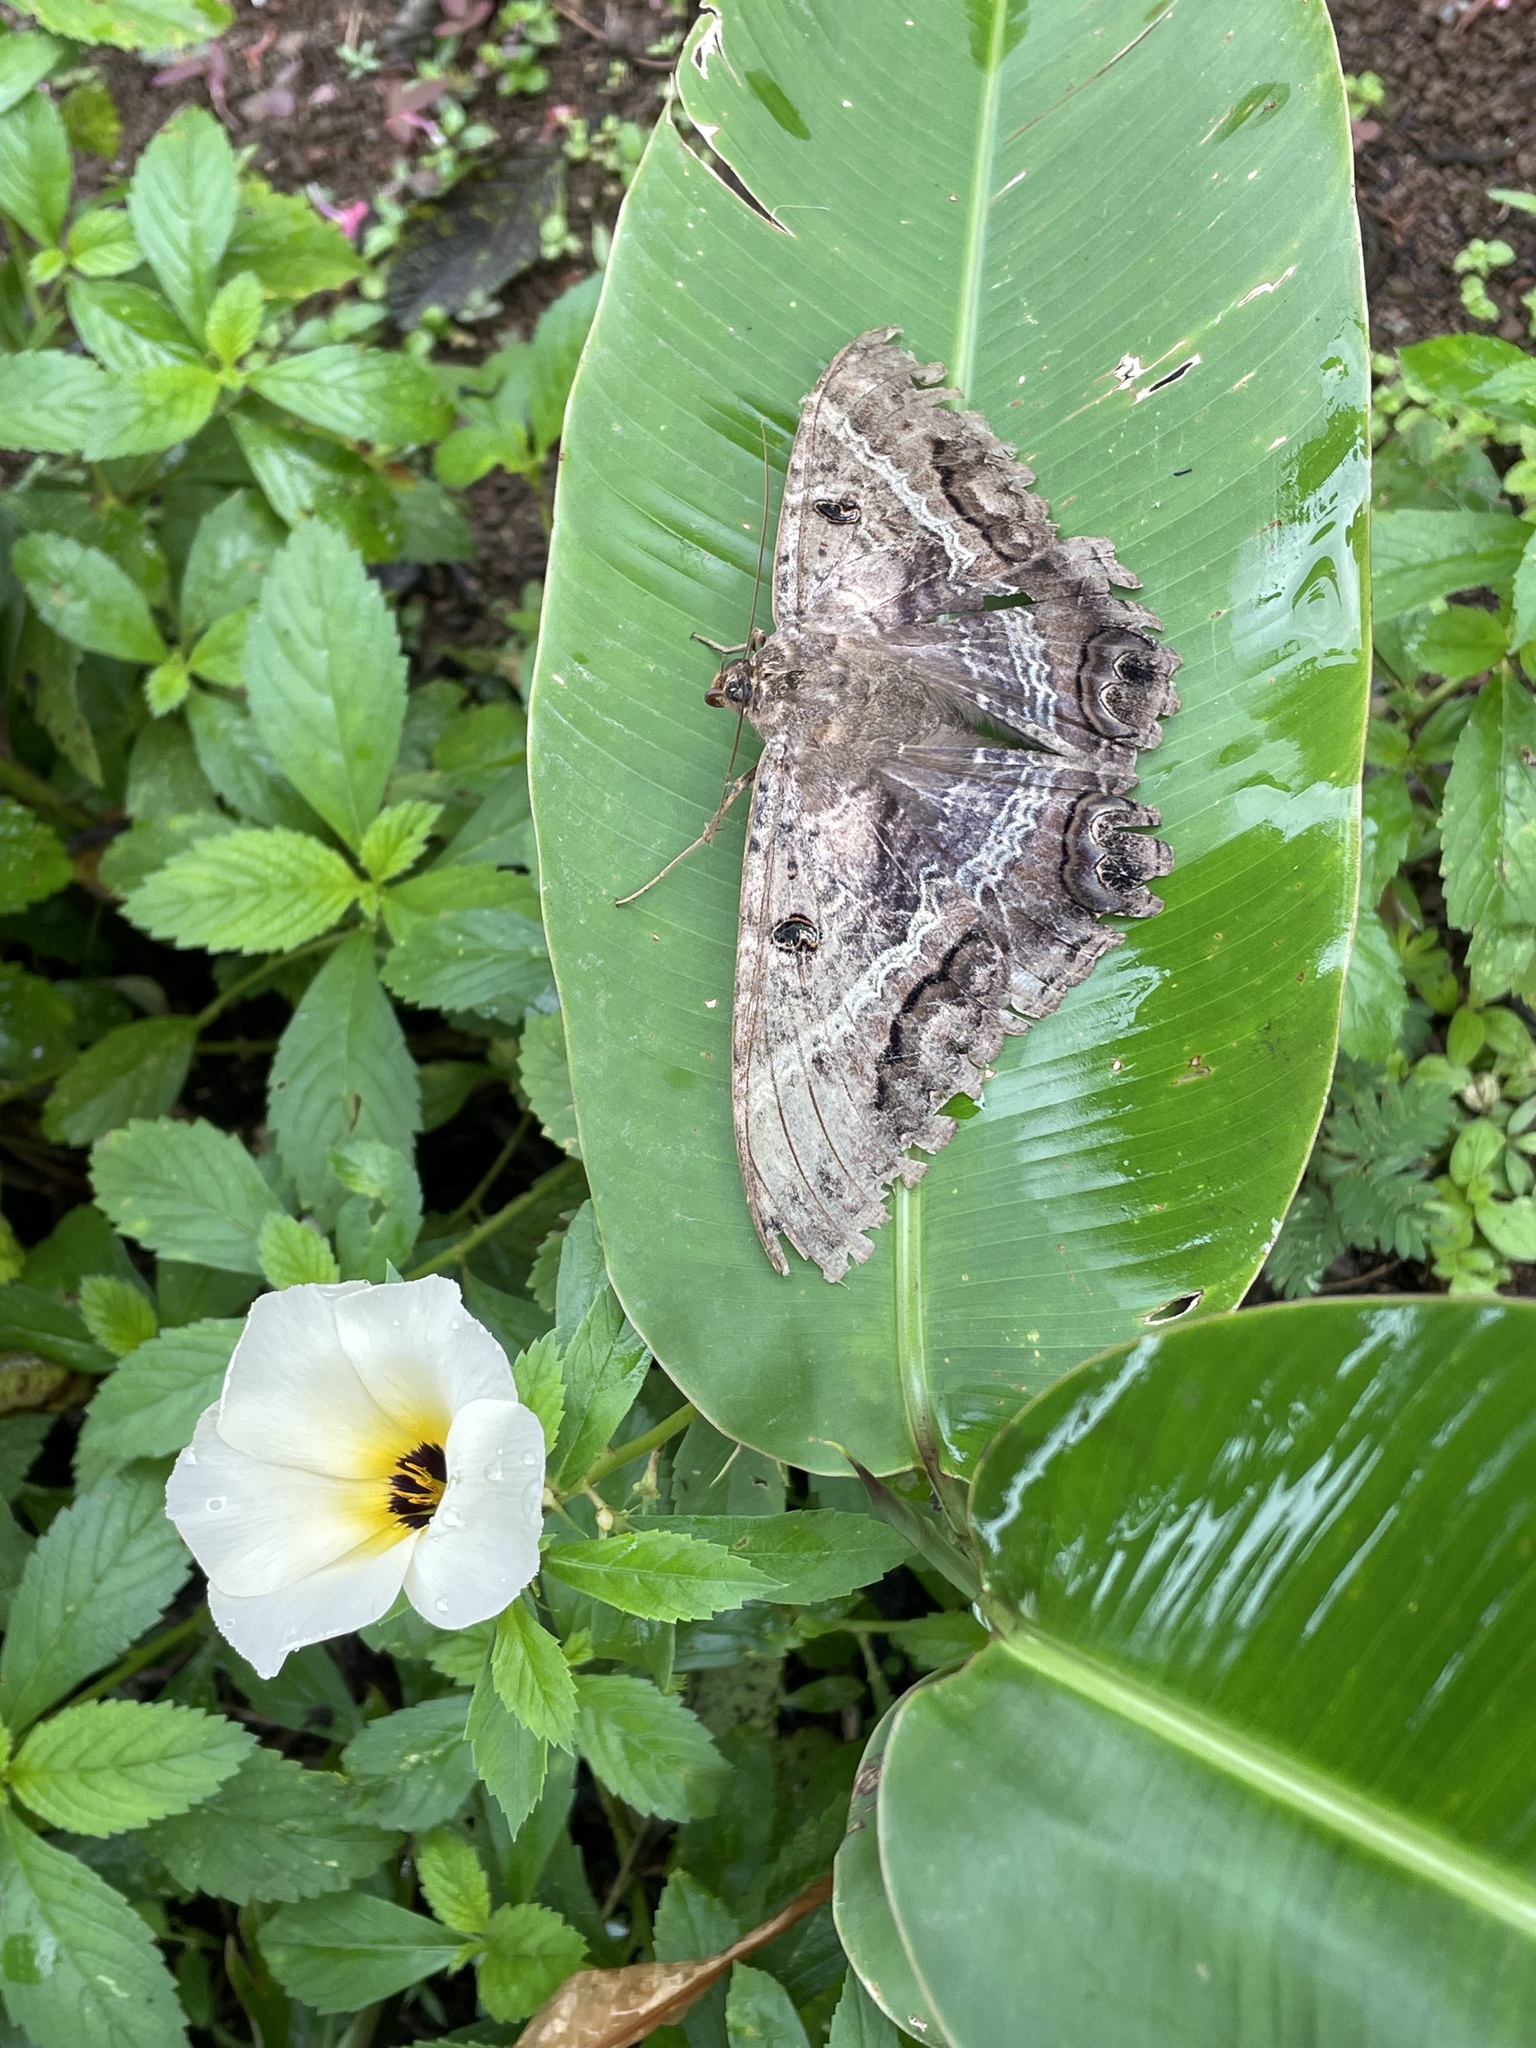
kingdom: Animalia
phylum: Arthropoda
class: Insecta
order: Lepidoptera
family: Erebidae
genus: Ascalapha
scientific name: Ascalapha odorata
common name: Black witch
